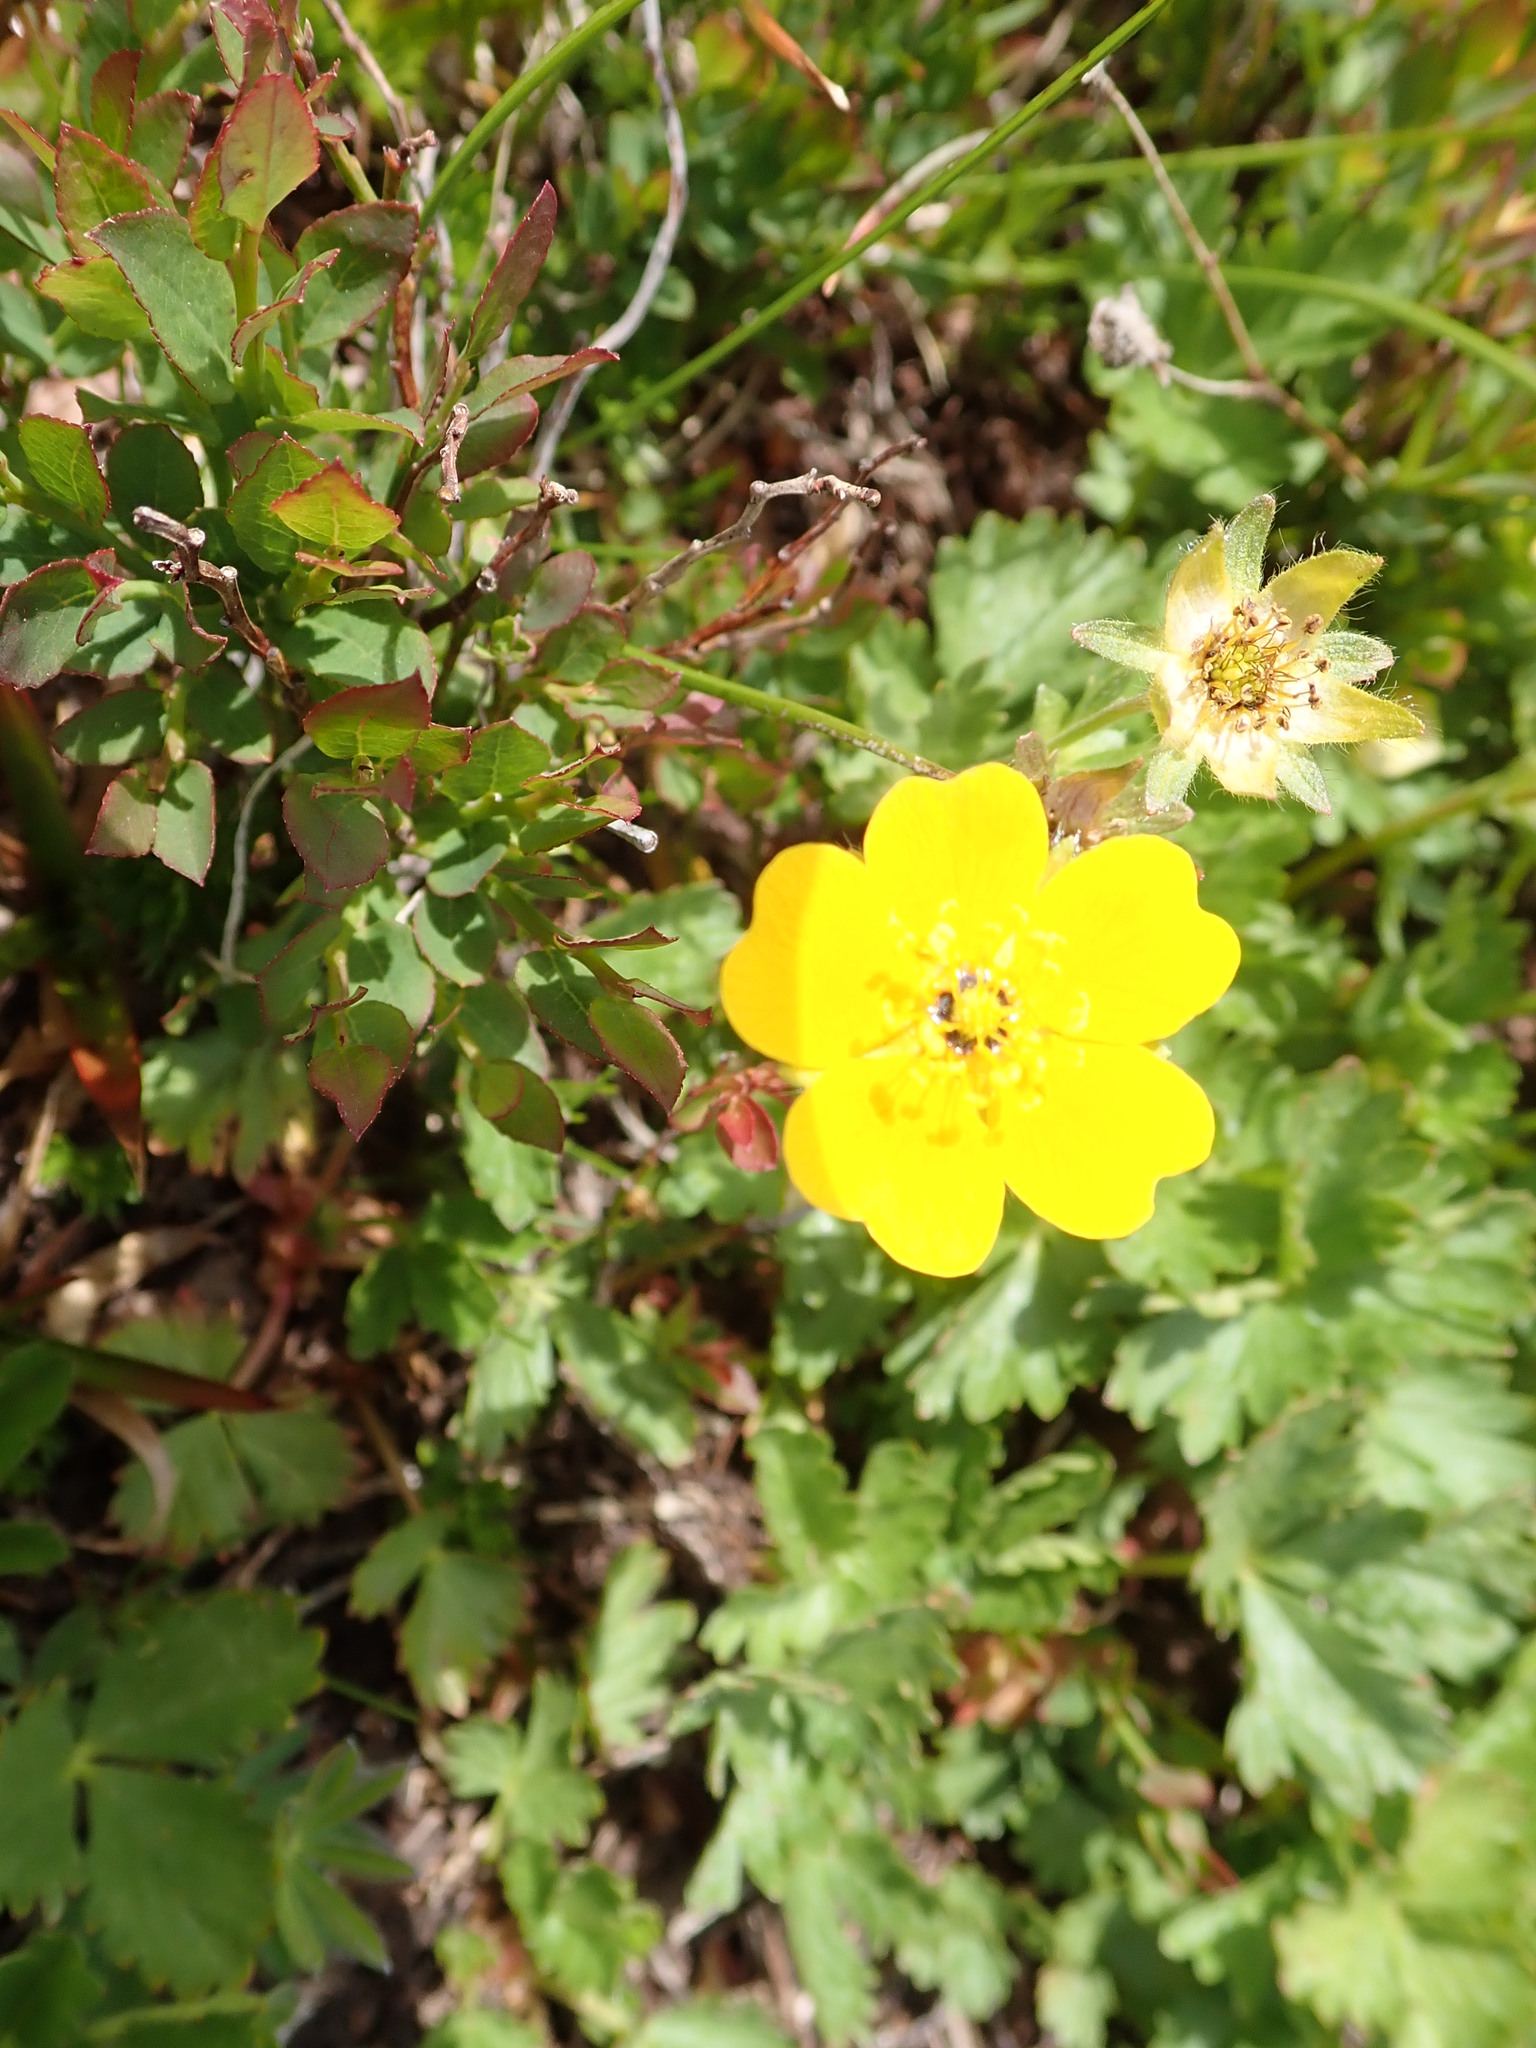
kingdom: Plantae
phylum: Tracheophyta
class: Magnoliopsida
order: Rosales
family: Rosaceae
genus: Potentilla
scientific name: Potentilla flabellifolia
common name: Mount rainier cinquefoil
